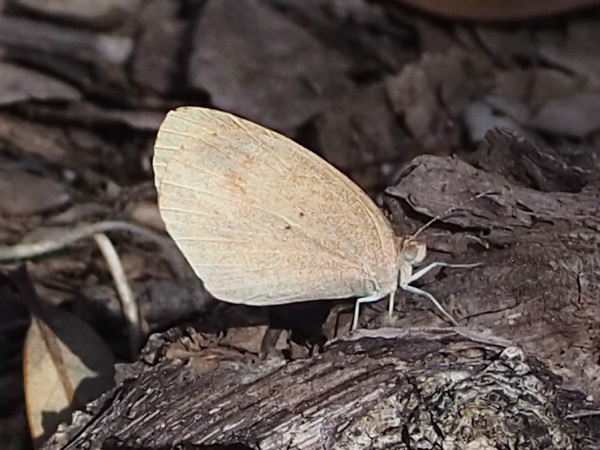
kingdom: Animalia
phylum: Arthropoda
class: Insecta
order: Lepidoptera
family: Pieridae
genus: Eurema
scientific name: Eurema daira
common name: Barred sulphur
